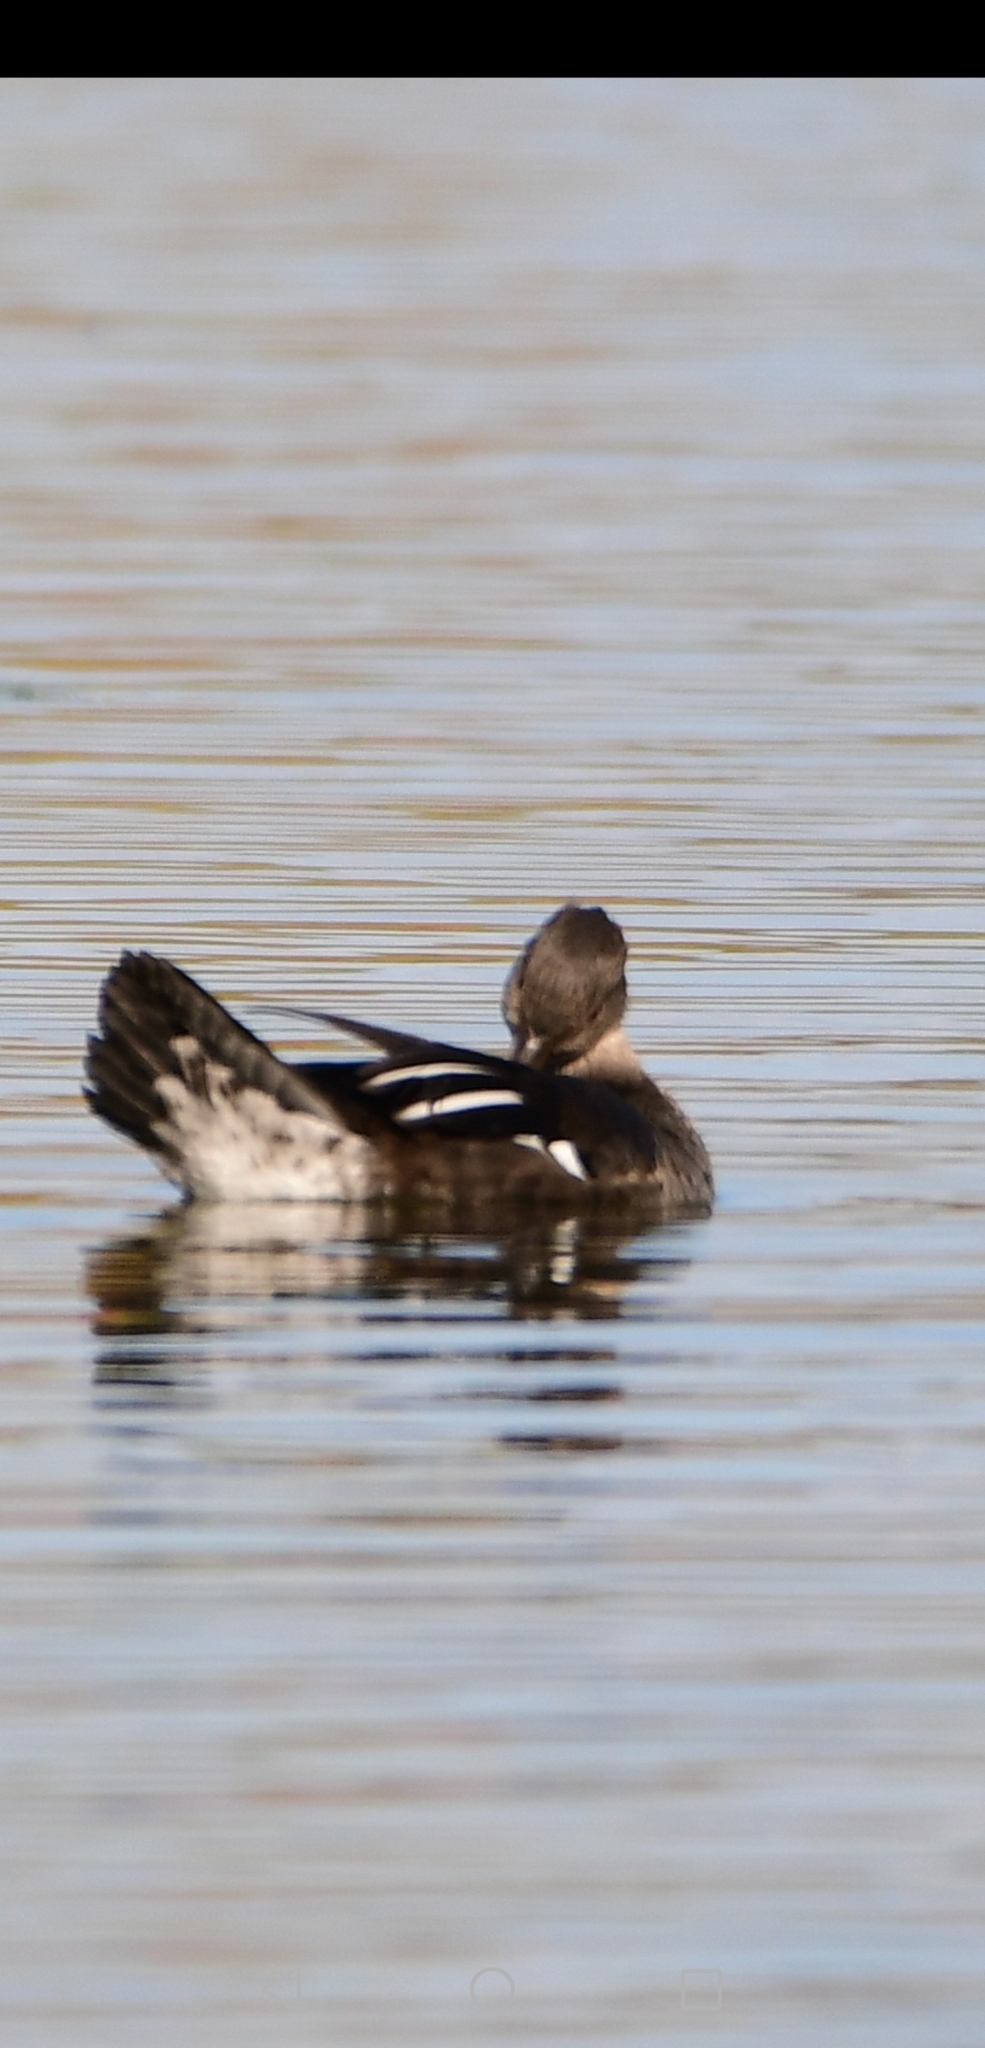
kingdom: Animalia
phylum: Chordata
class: Aves
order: Anseriformes
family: Anatidae
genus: Lophodytes
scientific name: Lophodytes cucullatus
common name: Hooded merganser
